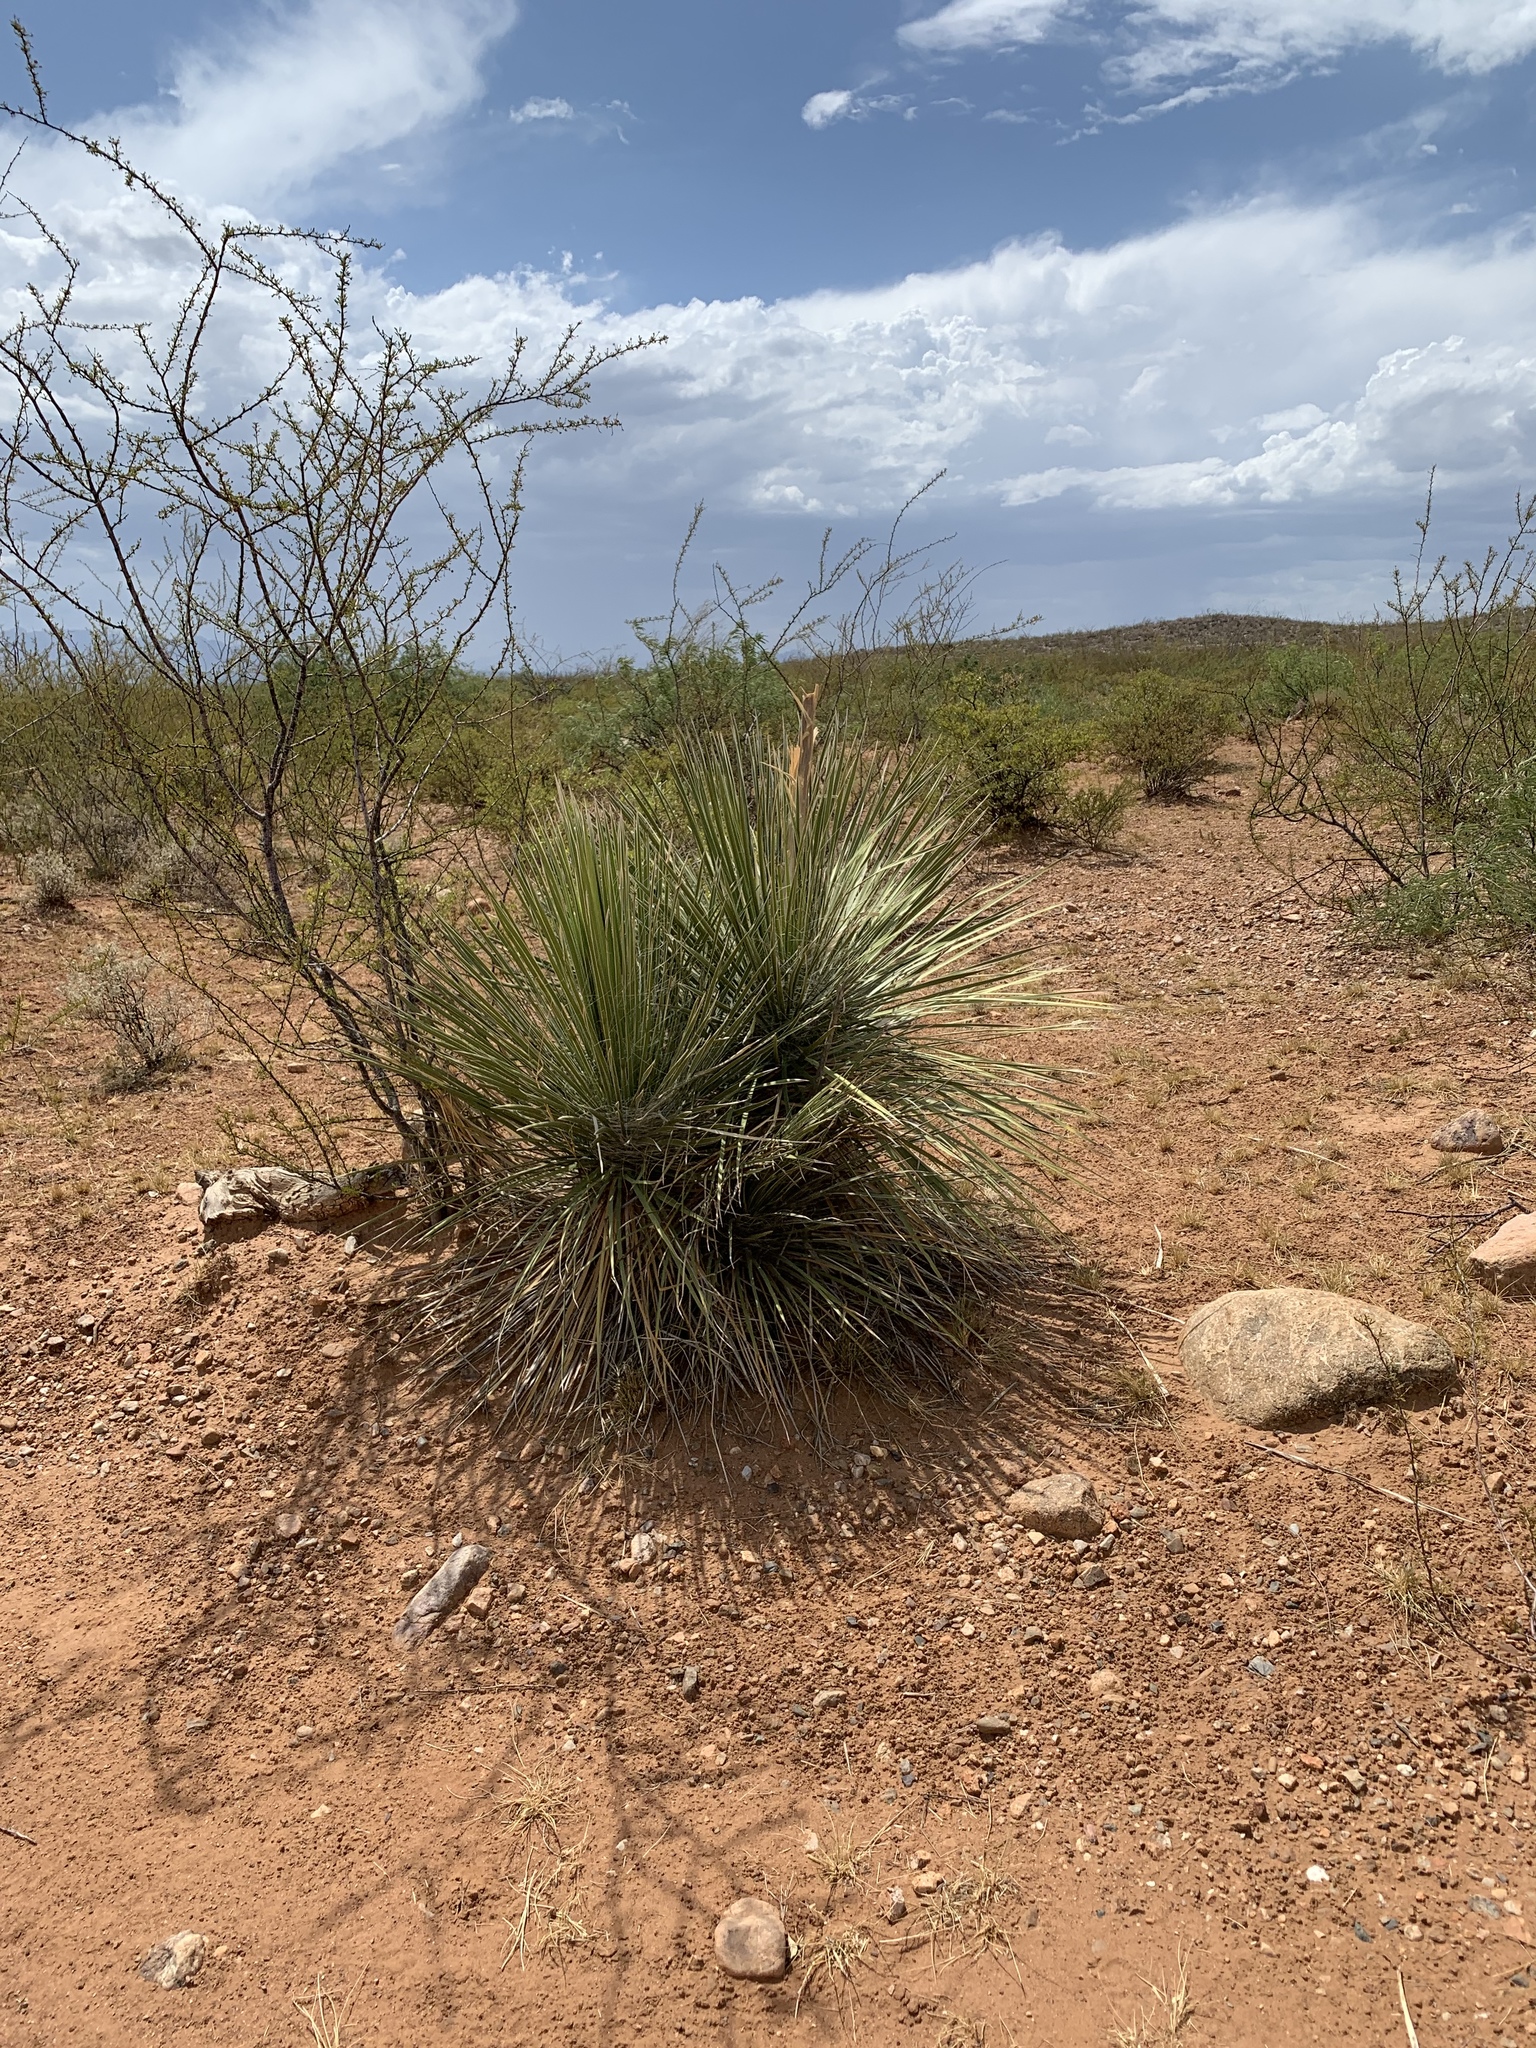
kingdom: Plantae
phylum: Tracheophyta
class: Liliopsida
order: Asparagales
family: Asparagaceae
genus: Yucca
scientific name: Yucca elata
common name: Palmella
